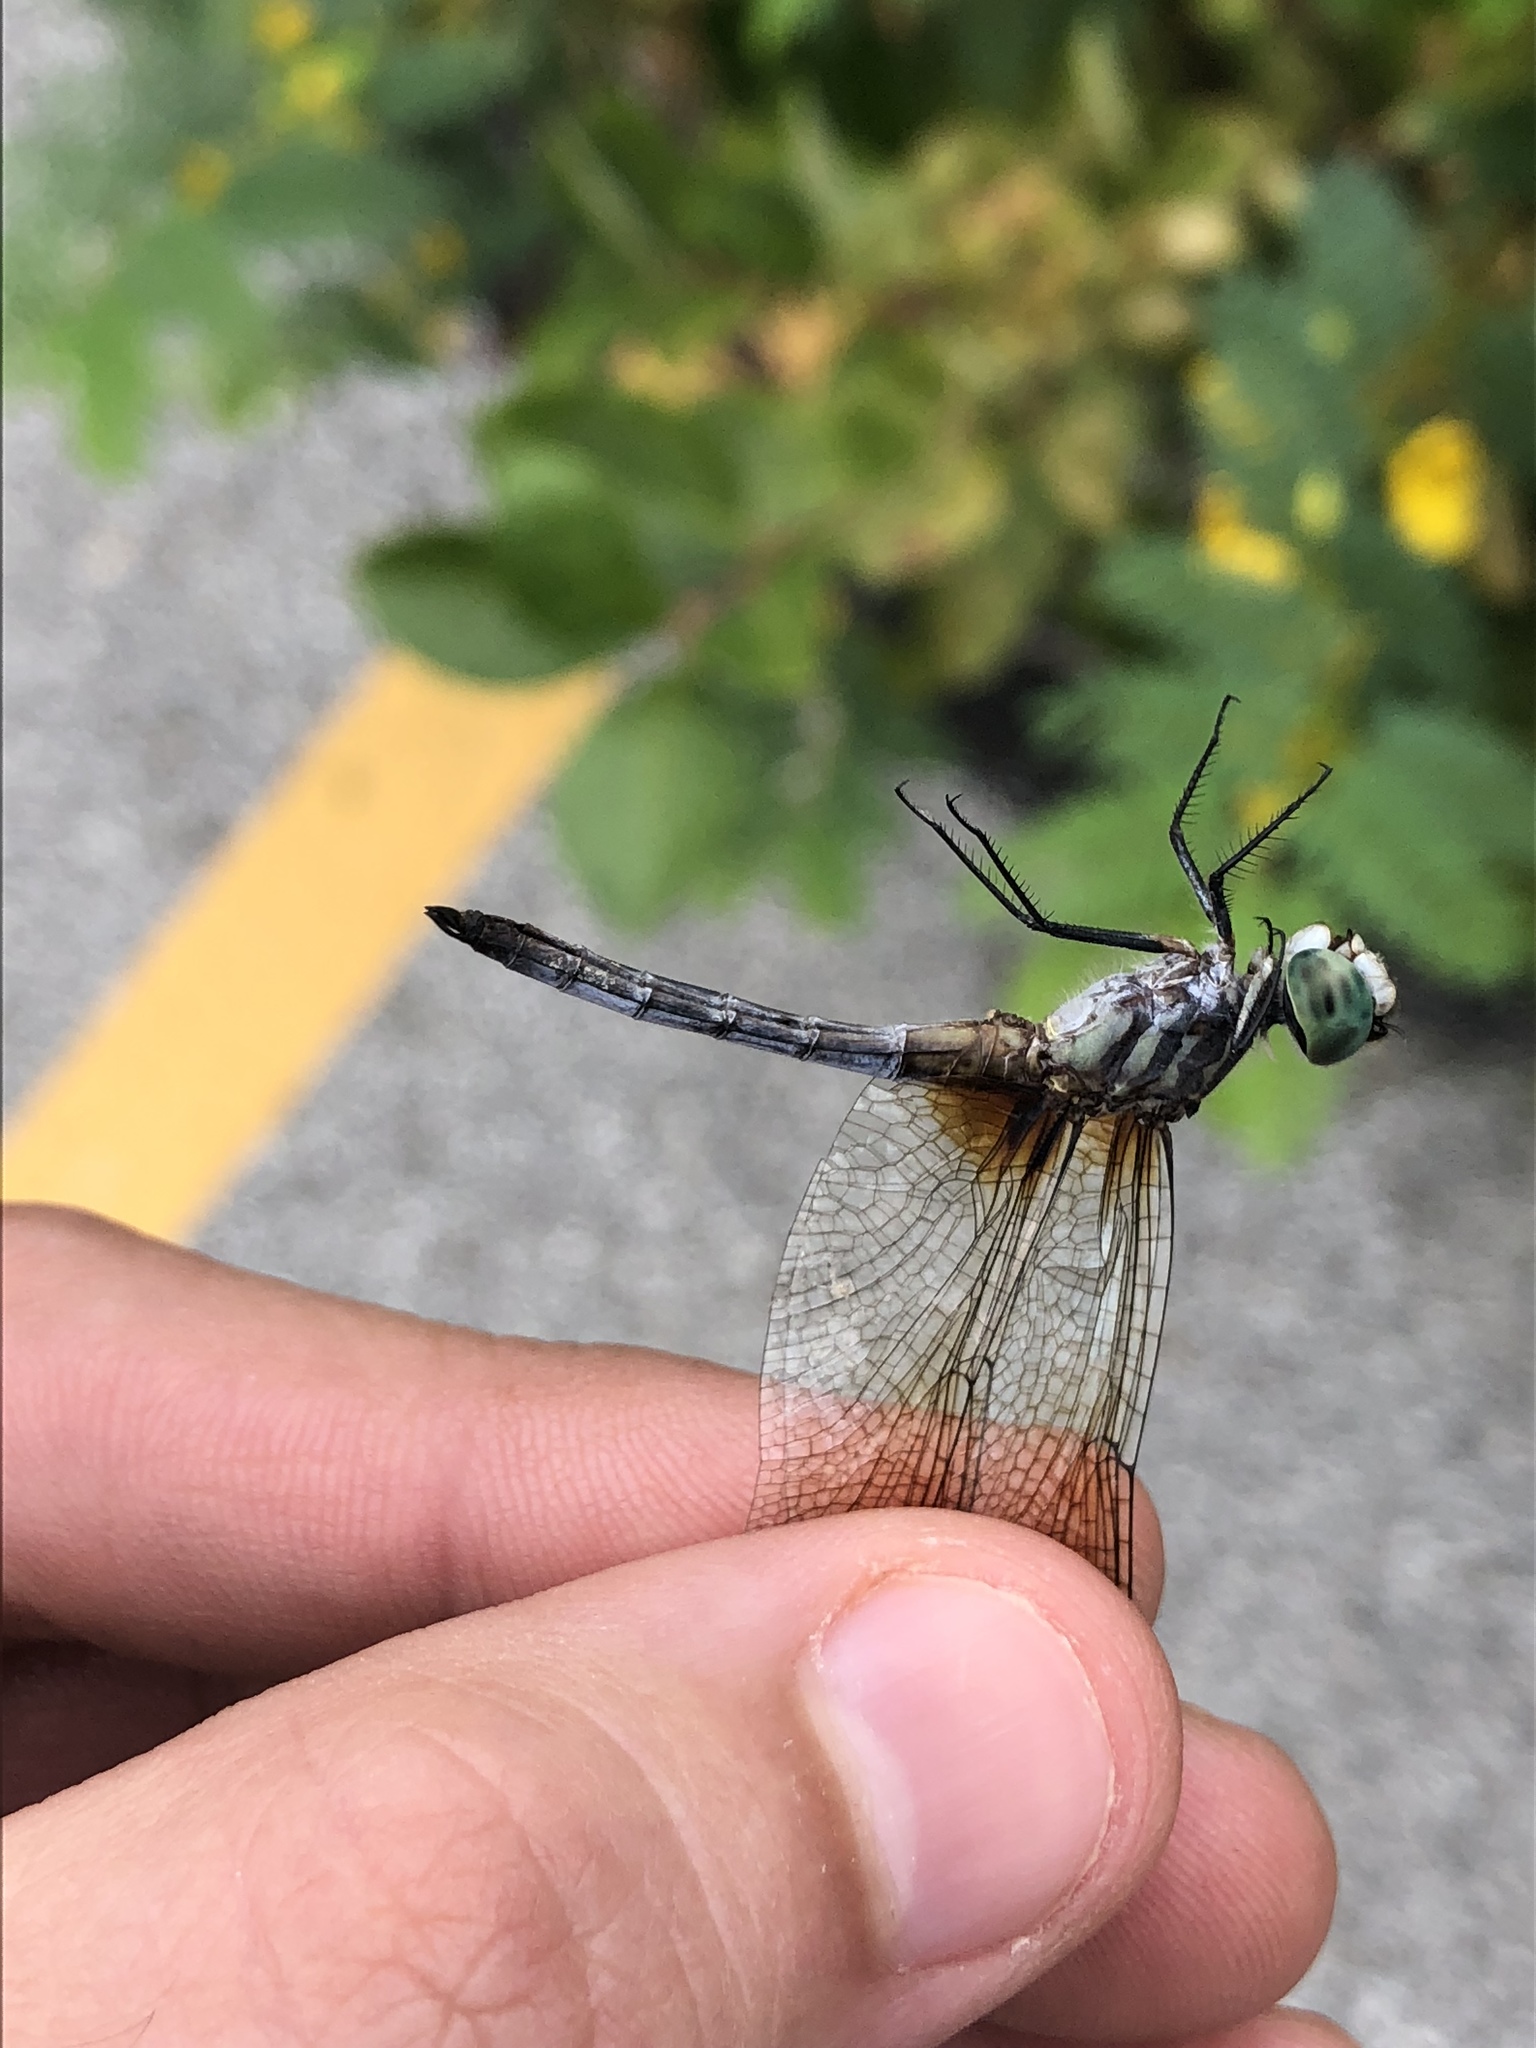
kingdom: Animalia
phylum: Arthropoda
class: Insecta
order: Odonata
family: Libellulidae
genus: Pachydiplax
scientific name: Pachydiplax longipennis
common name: Blue dasher
